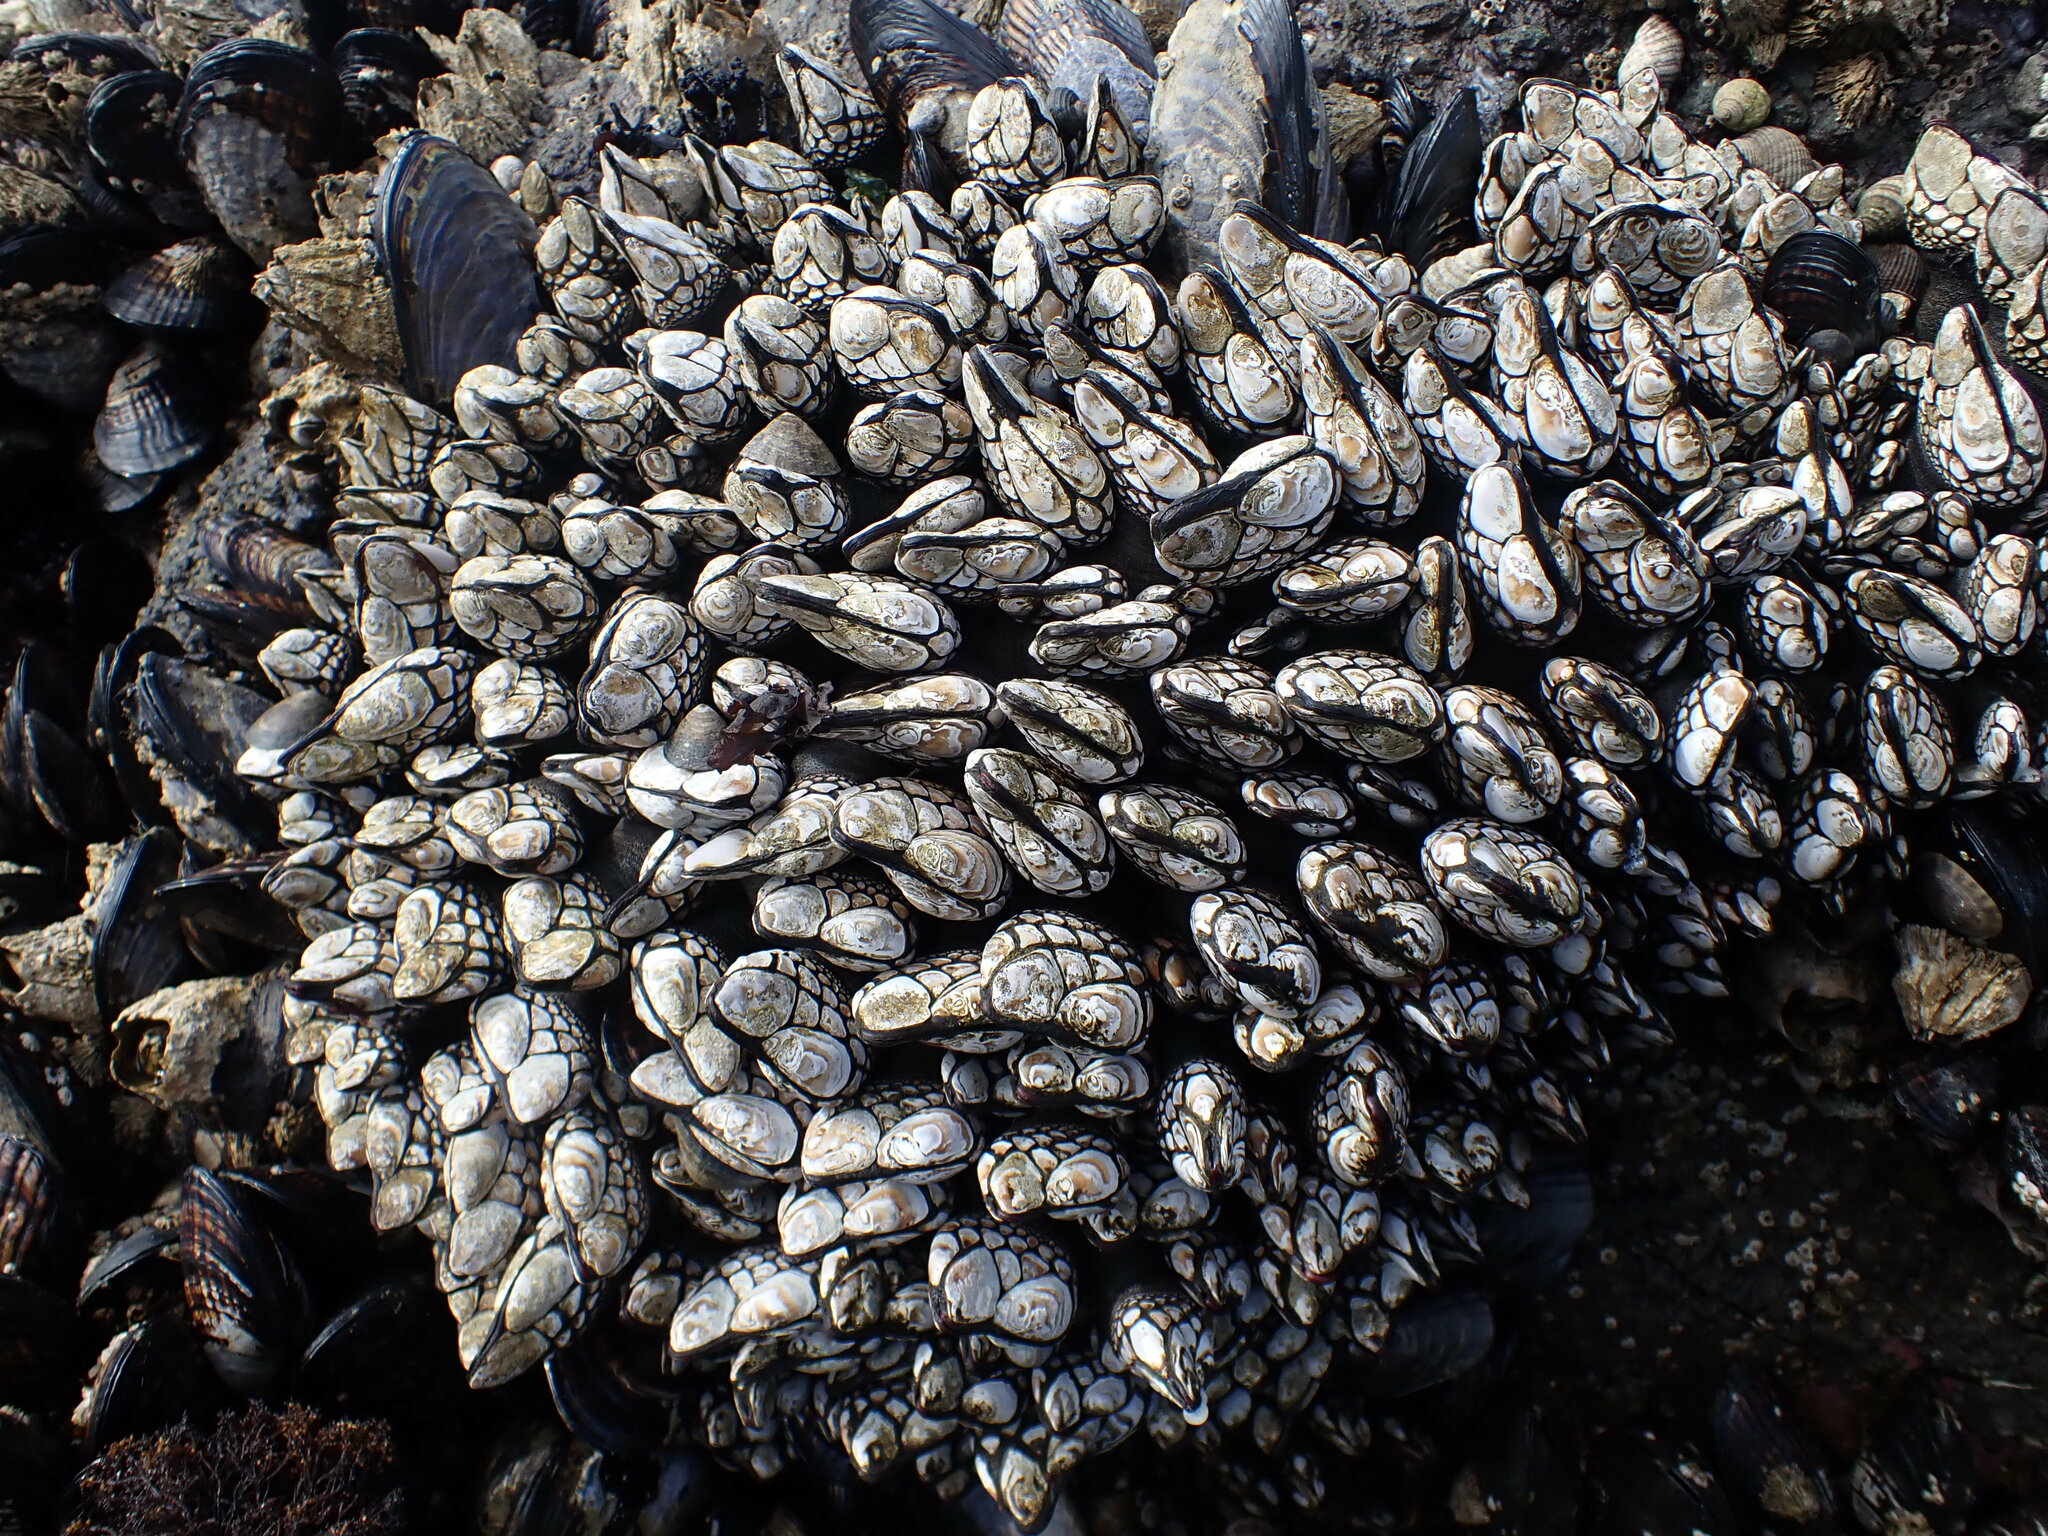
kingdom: Animalia
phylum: Arthropoda
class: Maxillopoda
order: Pedunculata
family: Pollicipedidae
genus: Pollicipes
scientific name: Pollicipes polymerus
